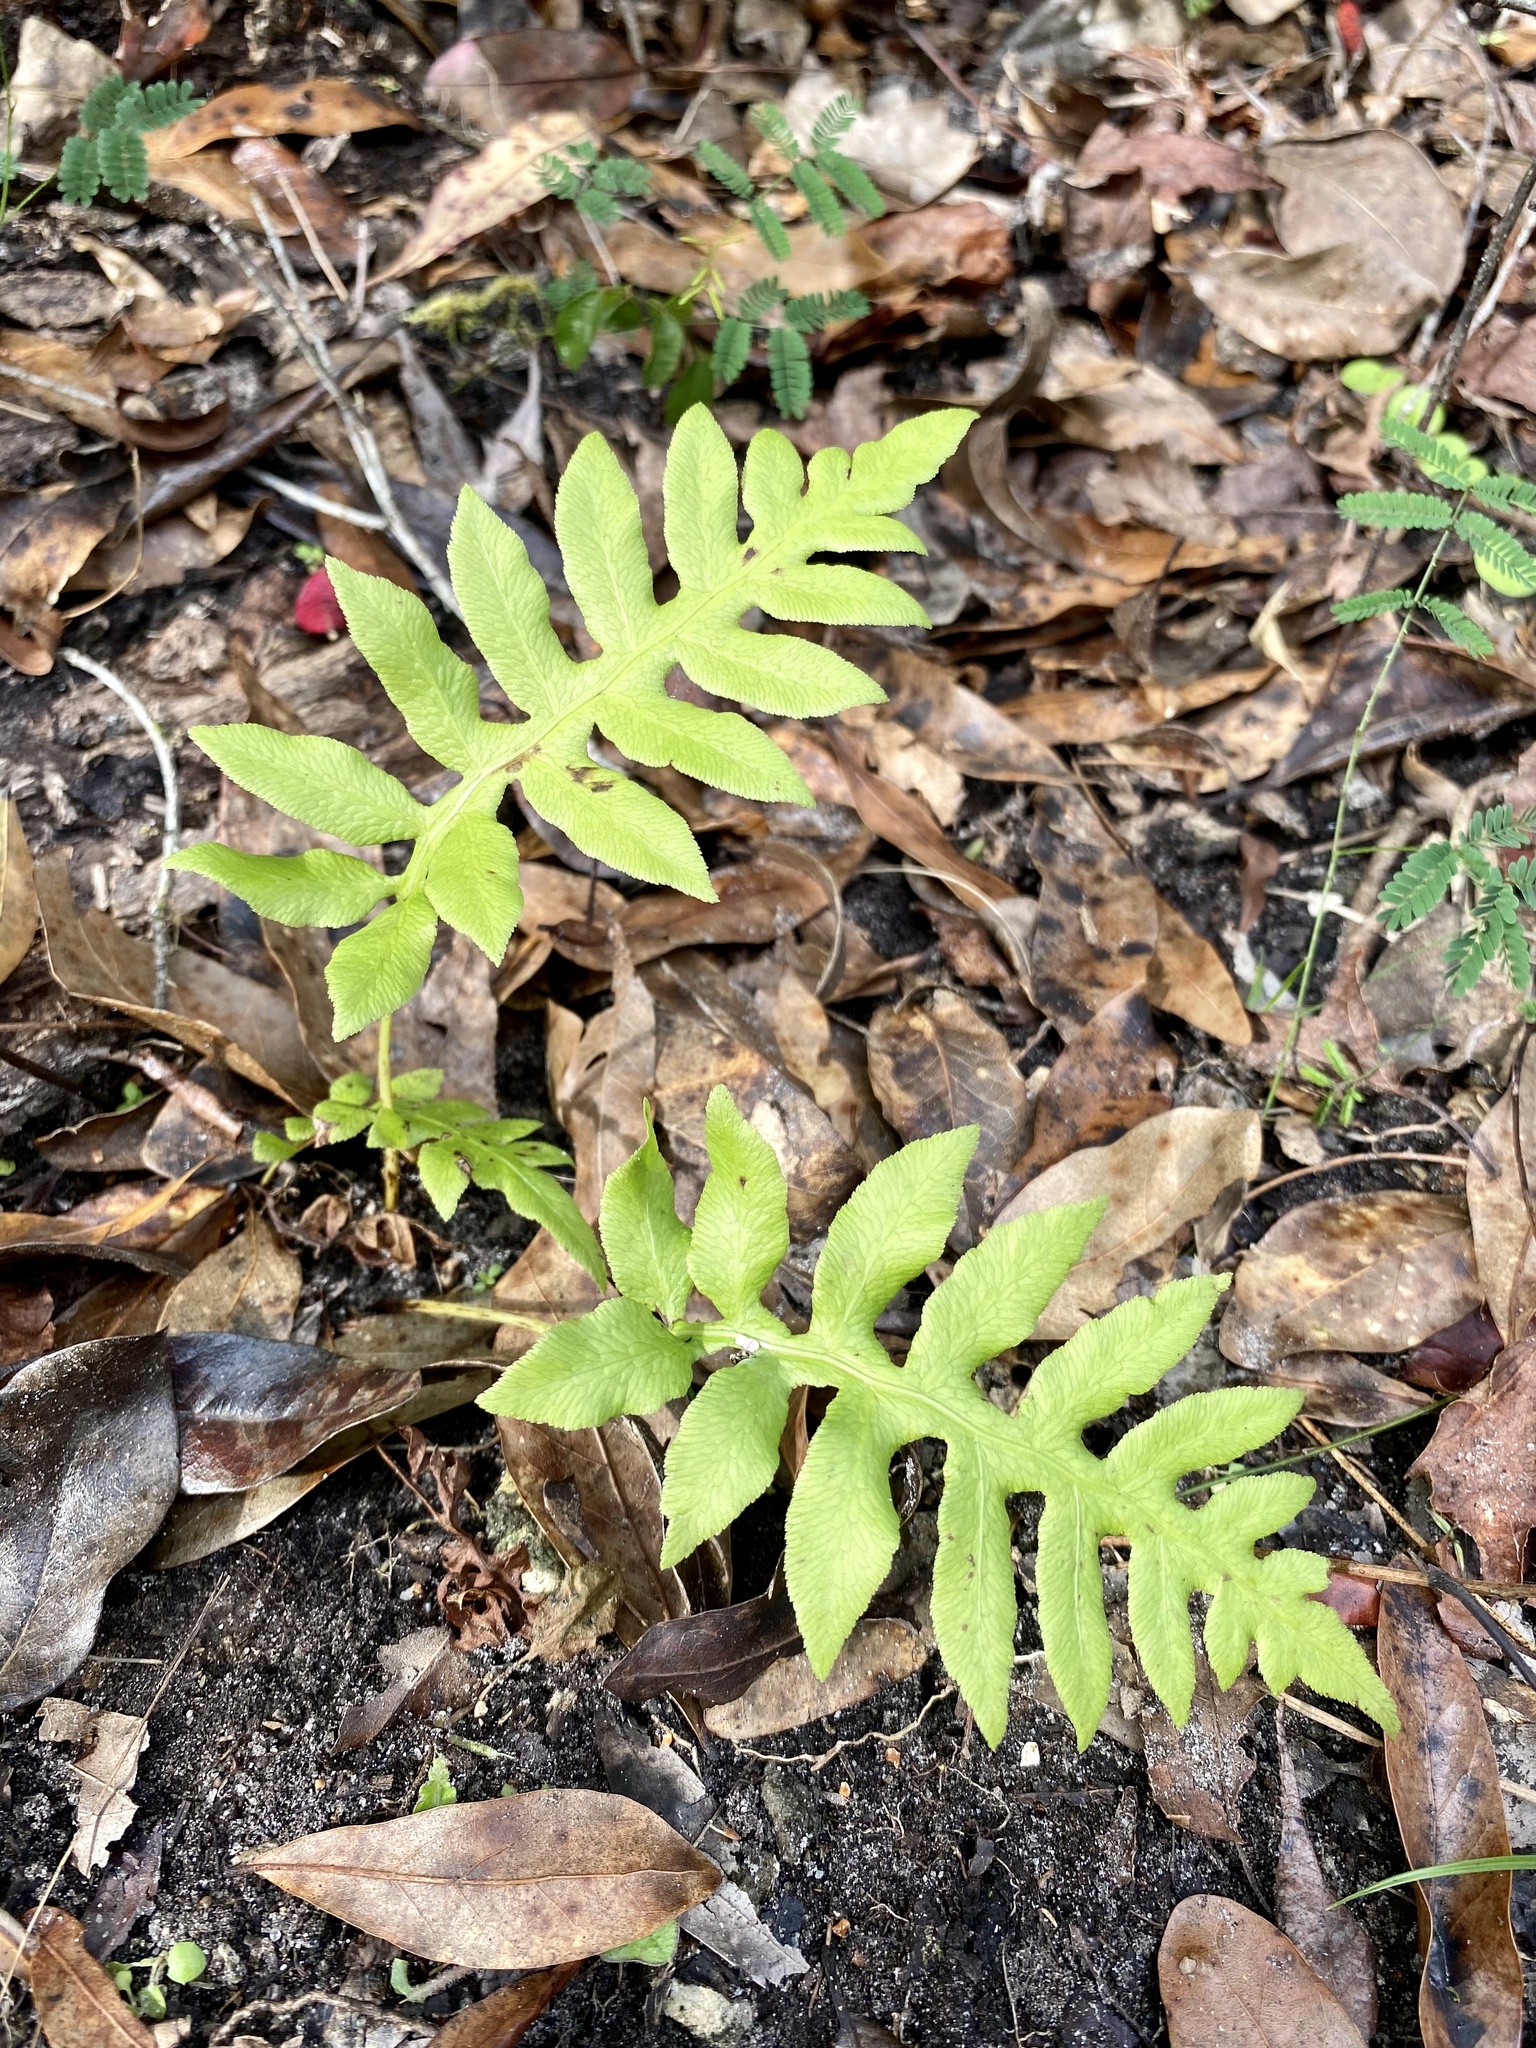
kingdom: Plantae
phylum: Tracheophyta
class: Polypodiopsida
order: Polypodiales
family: Blechnaceae
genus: Lorinseria
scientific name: Lorinseria areolata
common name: Dwarf chain fern
